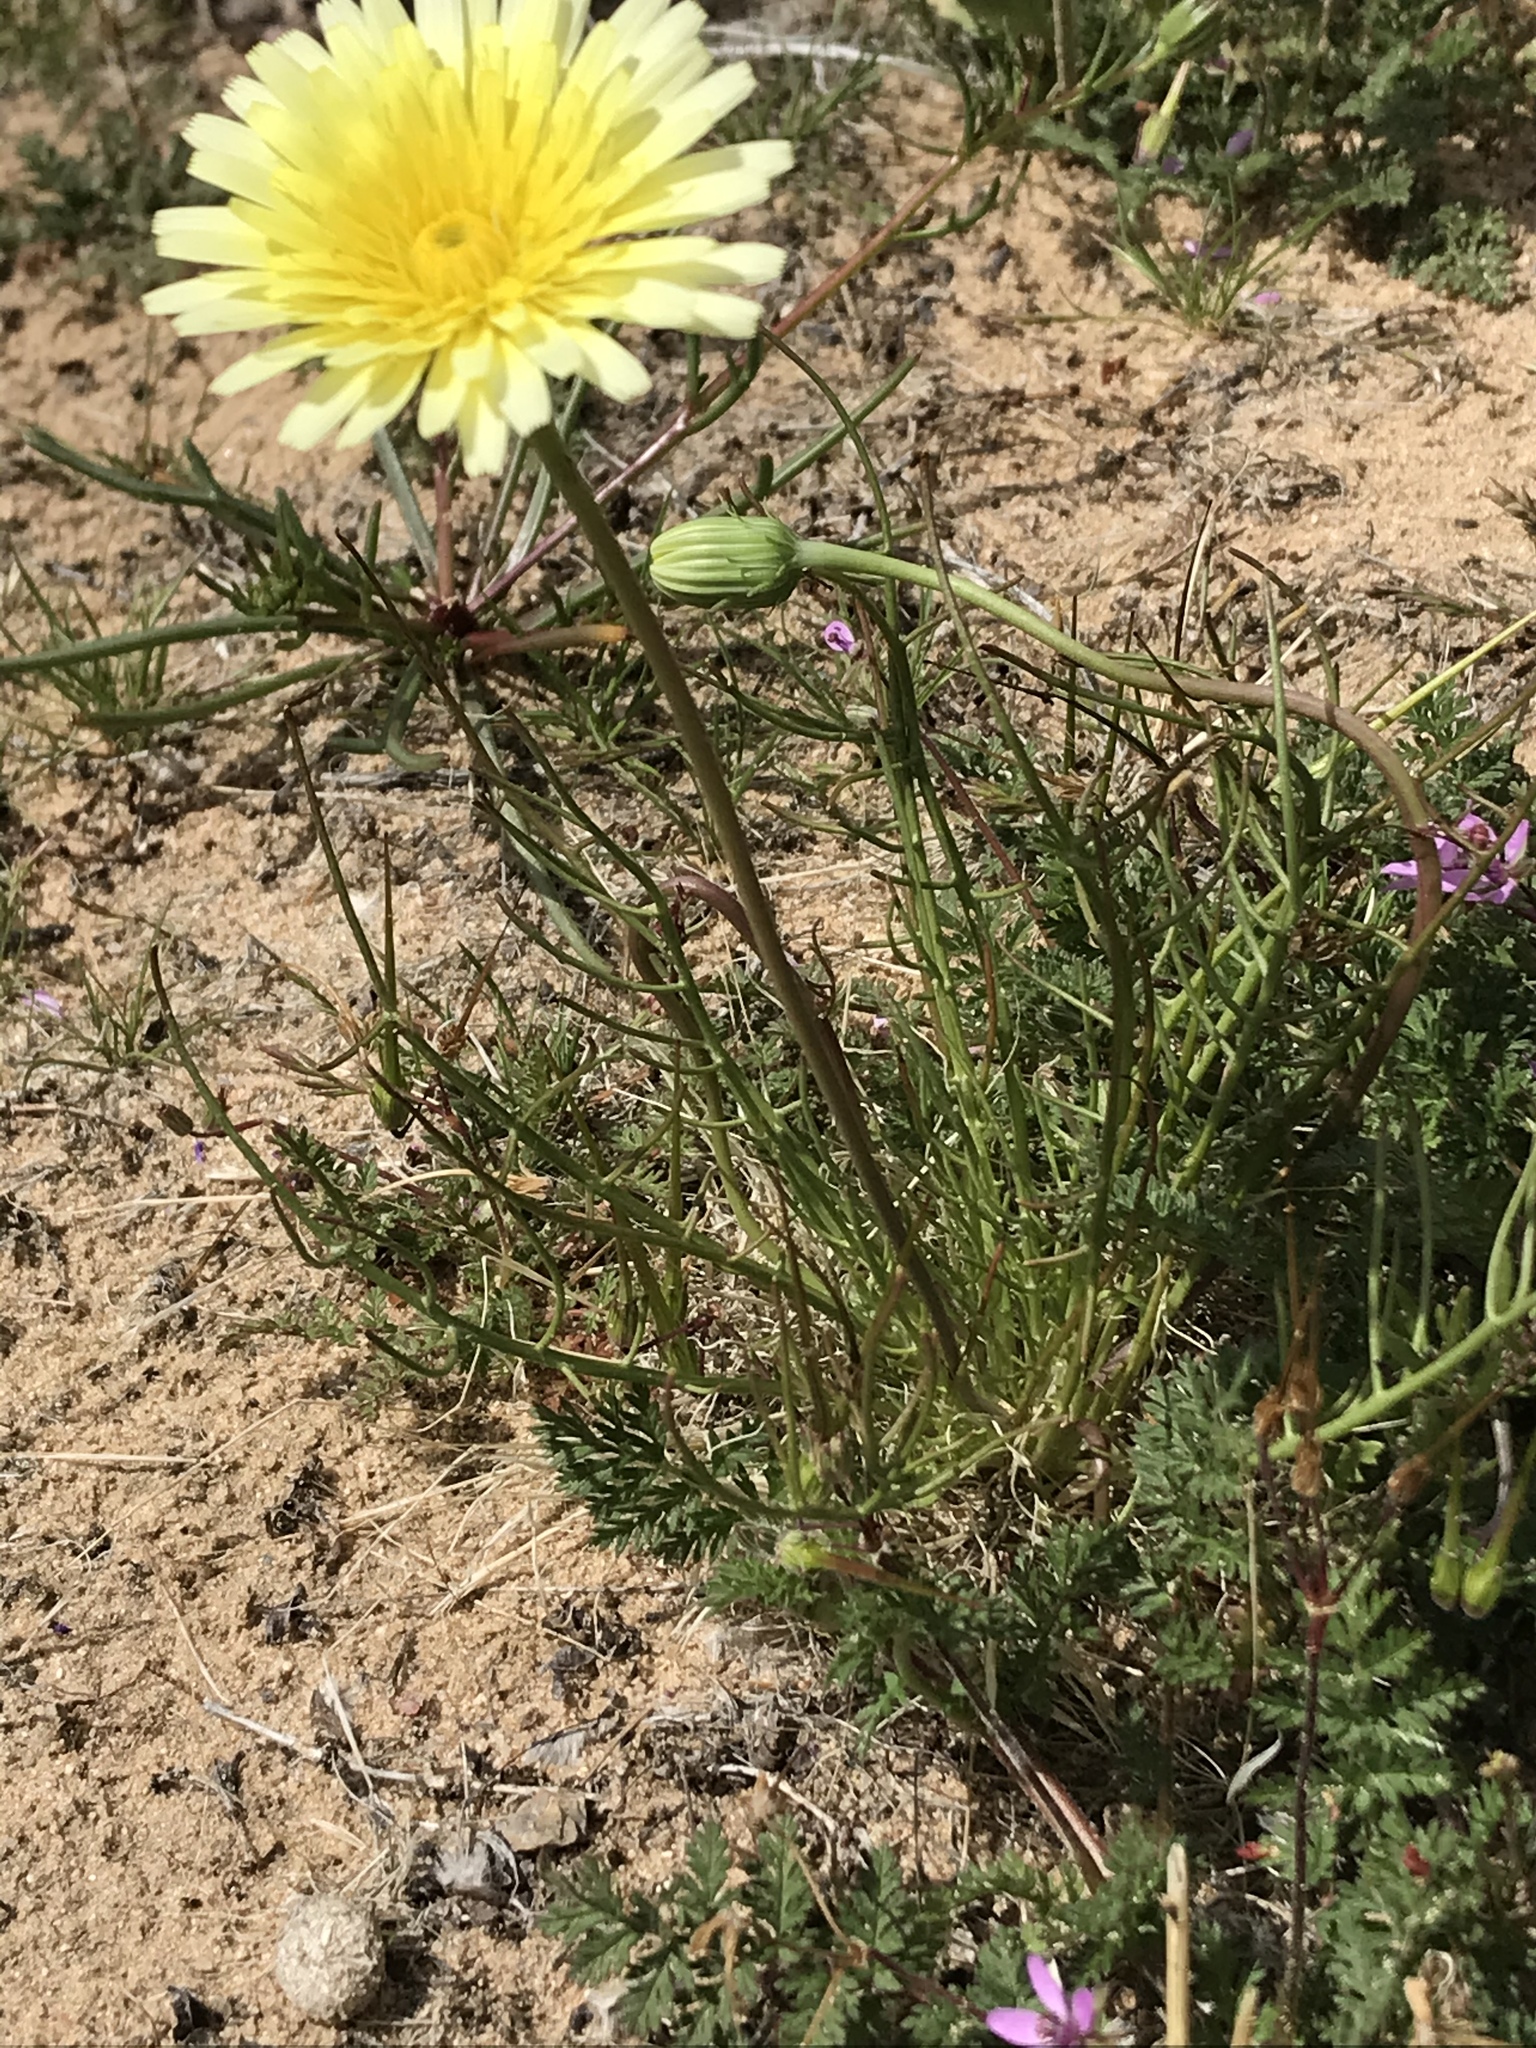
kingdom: Plantae
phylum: Tracheophyta
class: Magnoliopsida
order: Asterales
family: Asteraceae
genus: Malacothrix
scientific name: Malacothrix glabrata
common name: Smooth desert-dandelion
